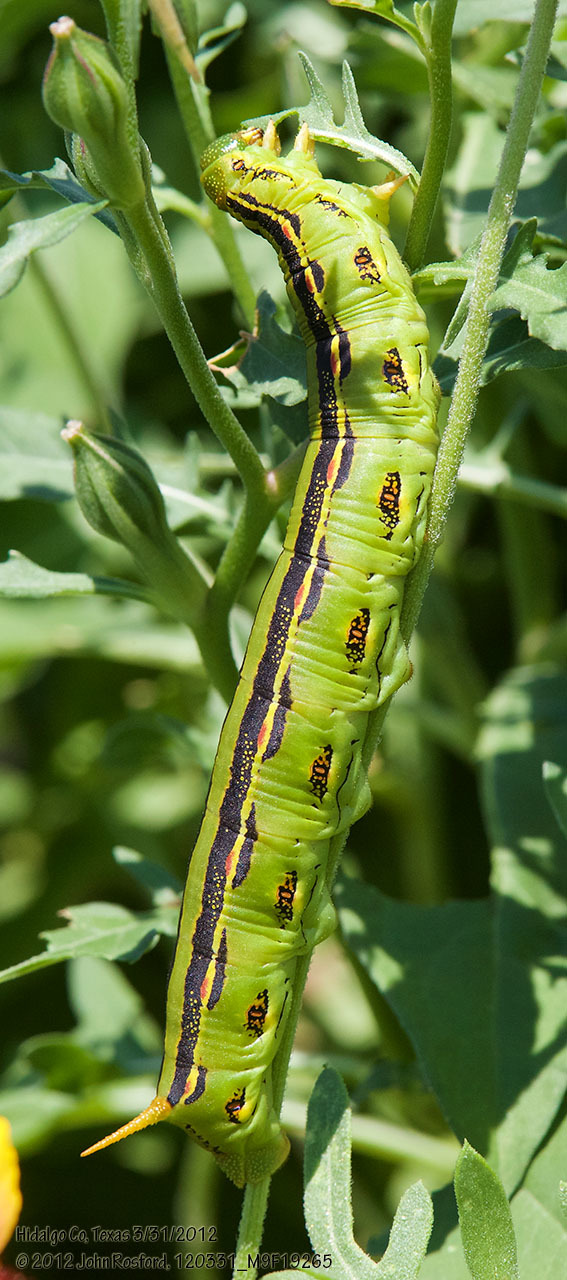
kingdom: Animalia
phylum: Arthropoda
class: Insecta
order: Lepidoptera
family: Sphingidae
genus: Hyles
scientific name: Hyles lineata
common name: White-lined sphinx
